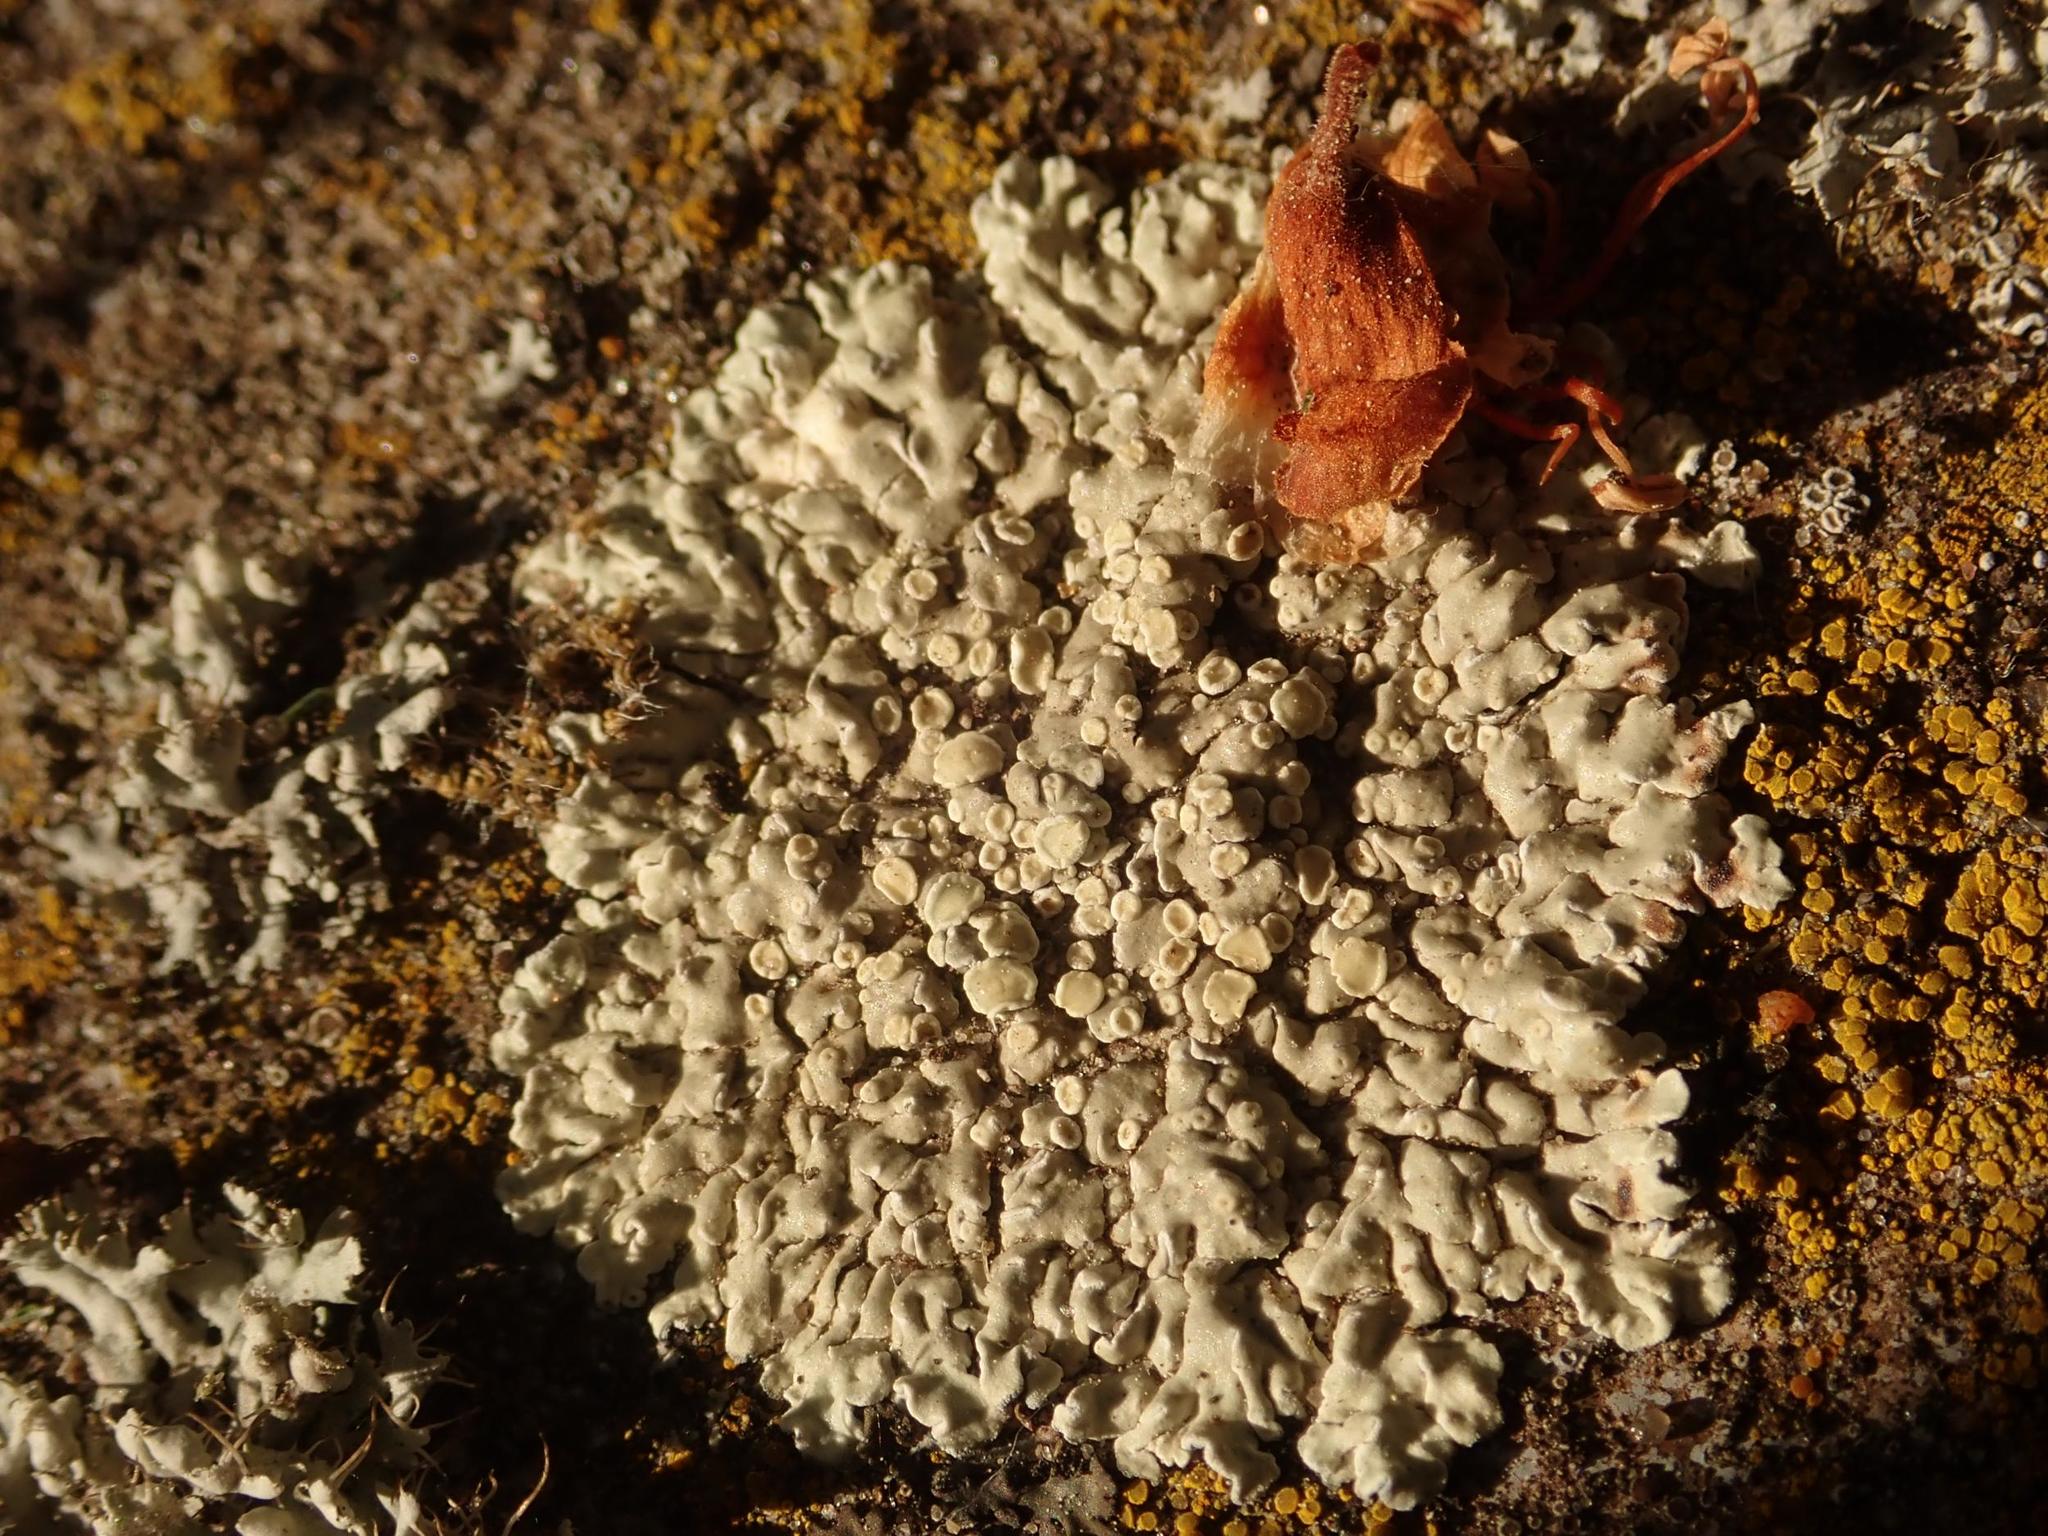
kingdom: Fungi
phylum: Ascomycota
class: Lecanoromycetes
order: Lecanorales
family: Lecanoraceae
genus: Protoparmeliopsis
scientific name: Protoparmeliopsis muralis
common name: Stonewall rim lichen
